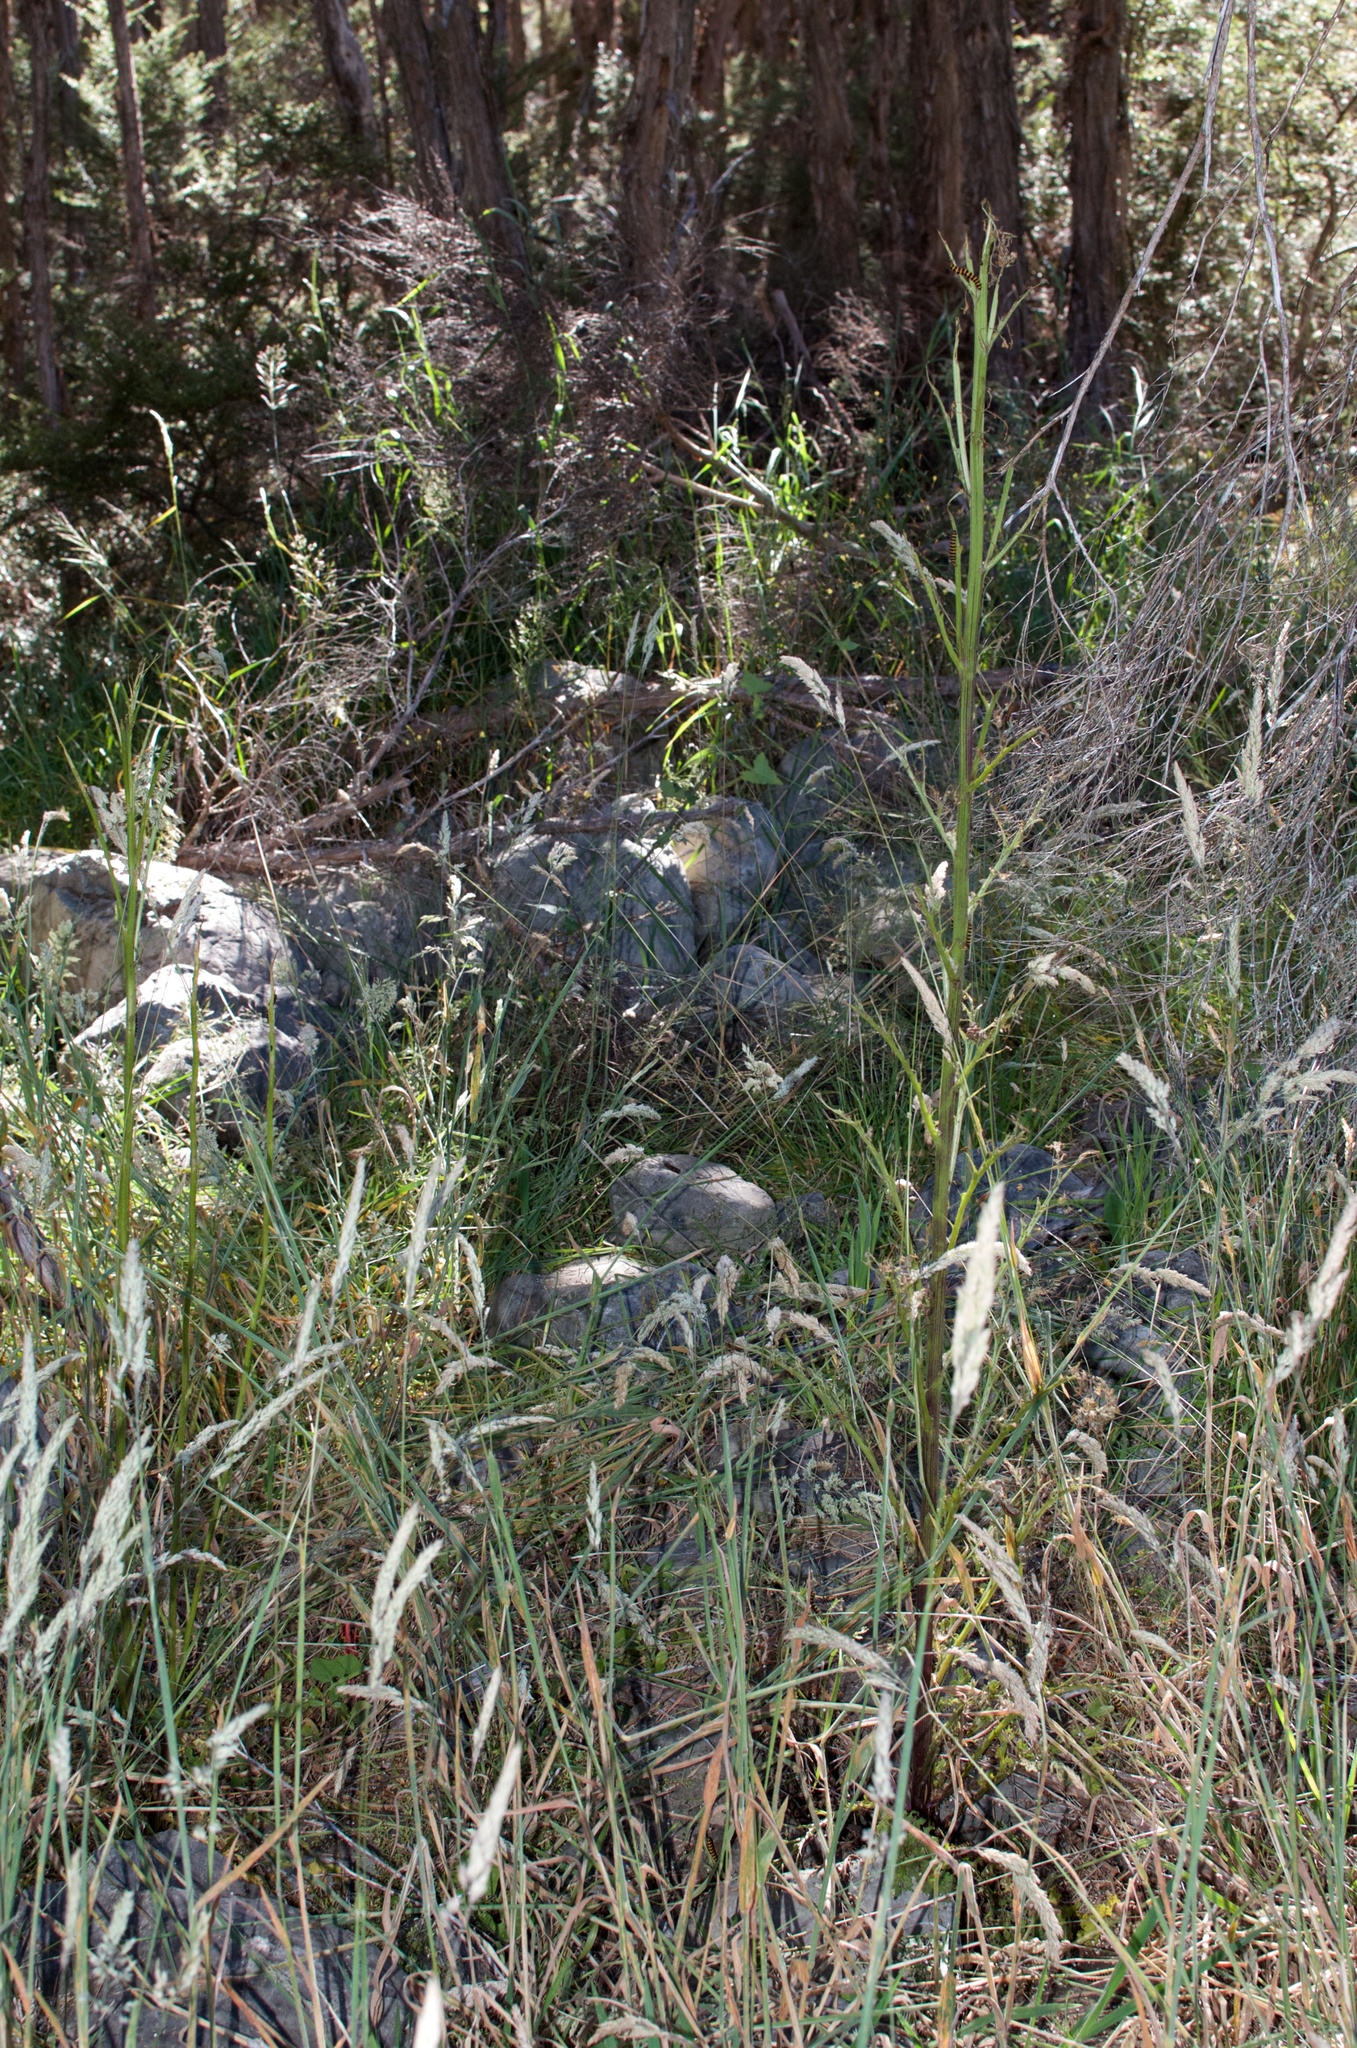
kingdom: Animalia
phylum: Arthropoda
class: Insecta
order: Lepidoptera
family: Erebidae
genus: Tyria
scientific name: Tyria jacobaeae
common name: Cinnabar
